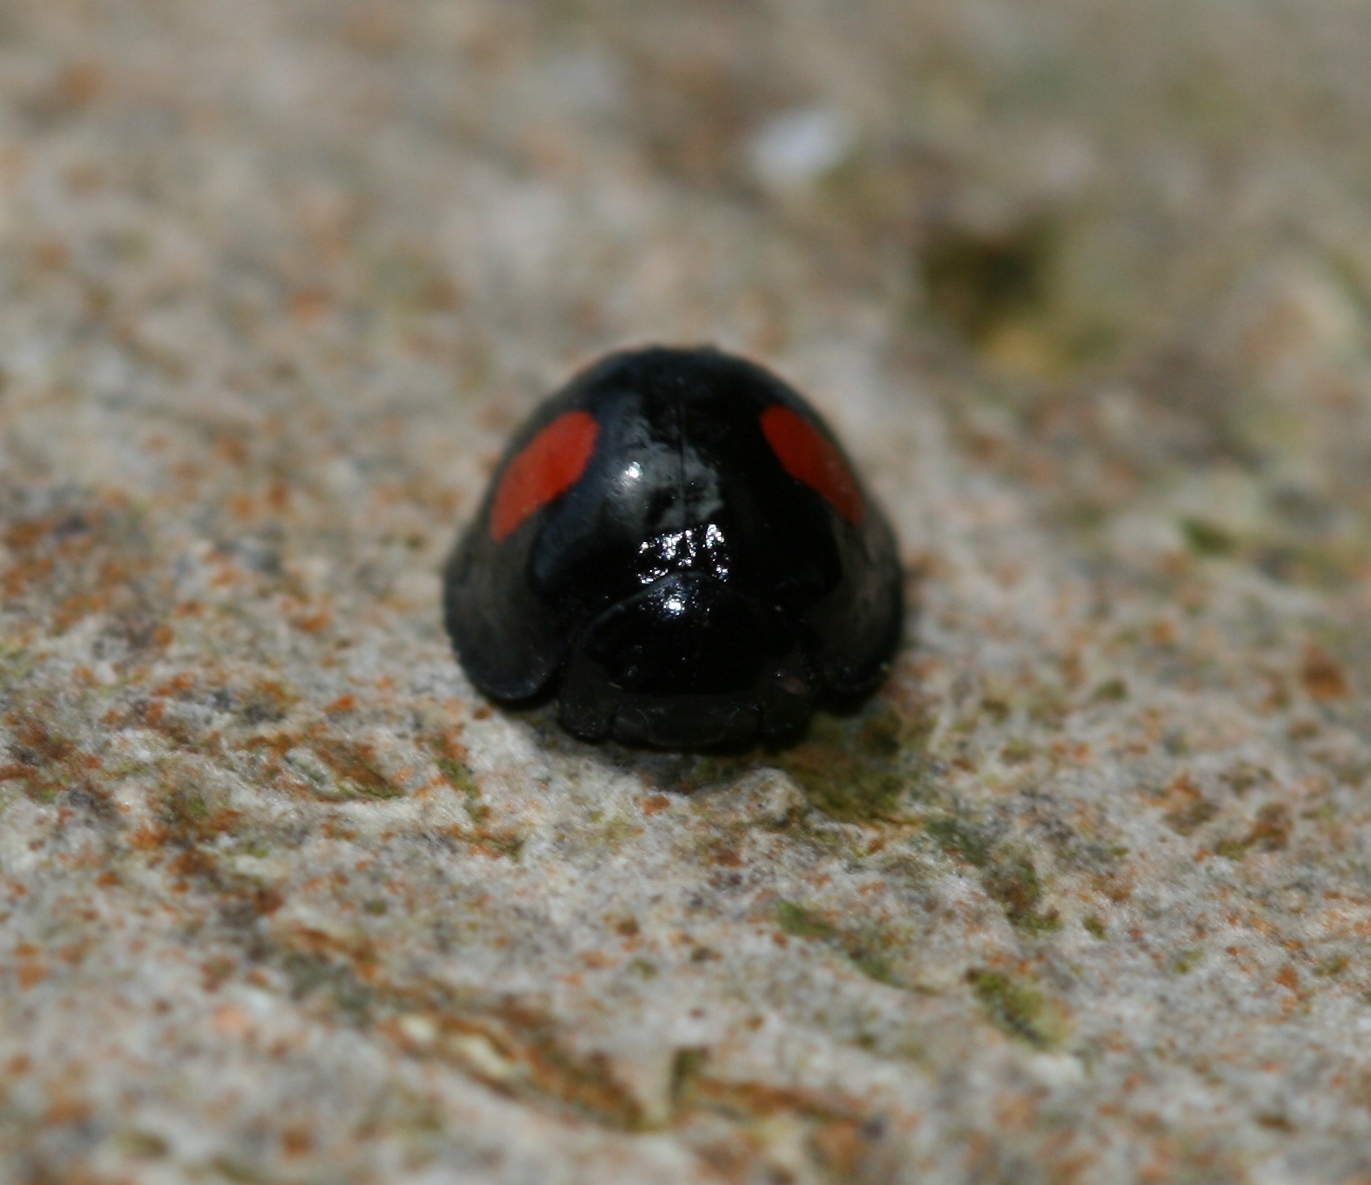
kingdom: Animalia
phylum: Arthropoda
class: Insecta
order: Coleoptera
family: Coccinellidae
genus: Chilocorus
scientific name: Chilocorus renipustulatus
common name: Kidney-spot ladybird
